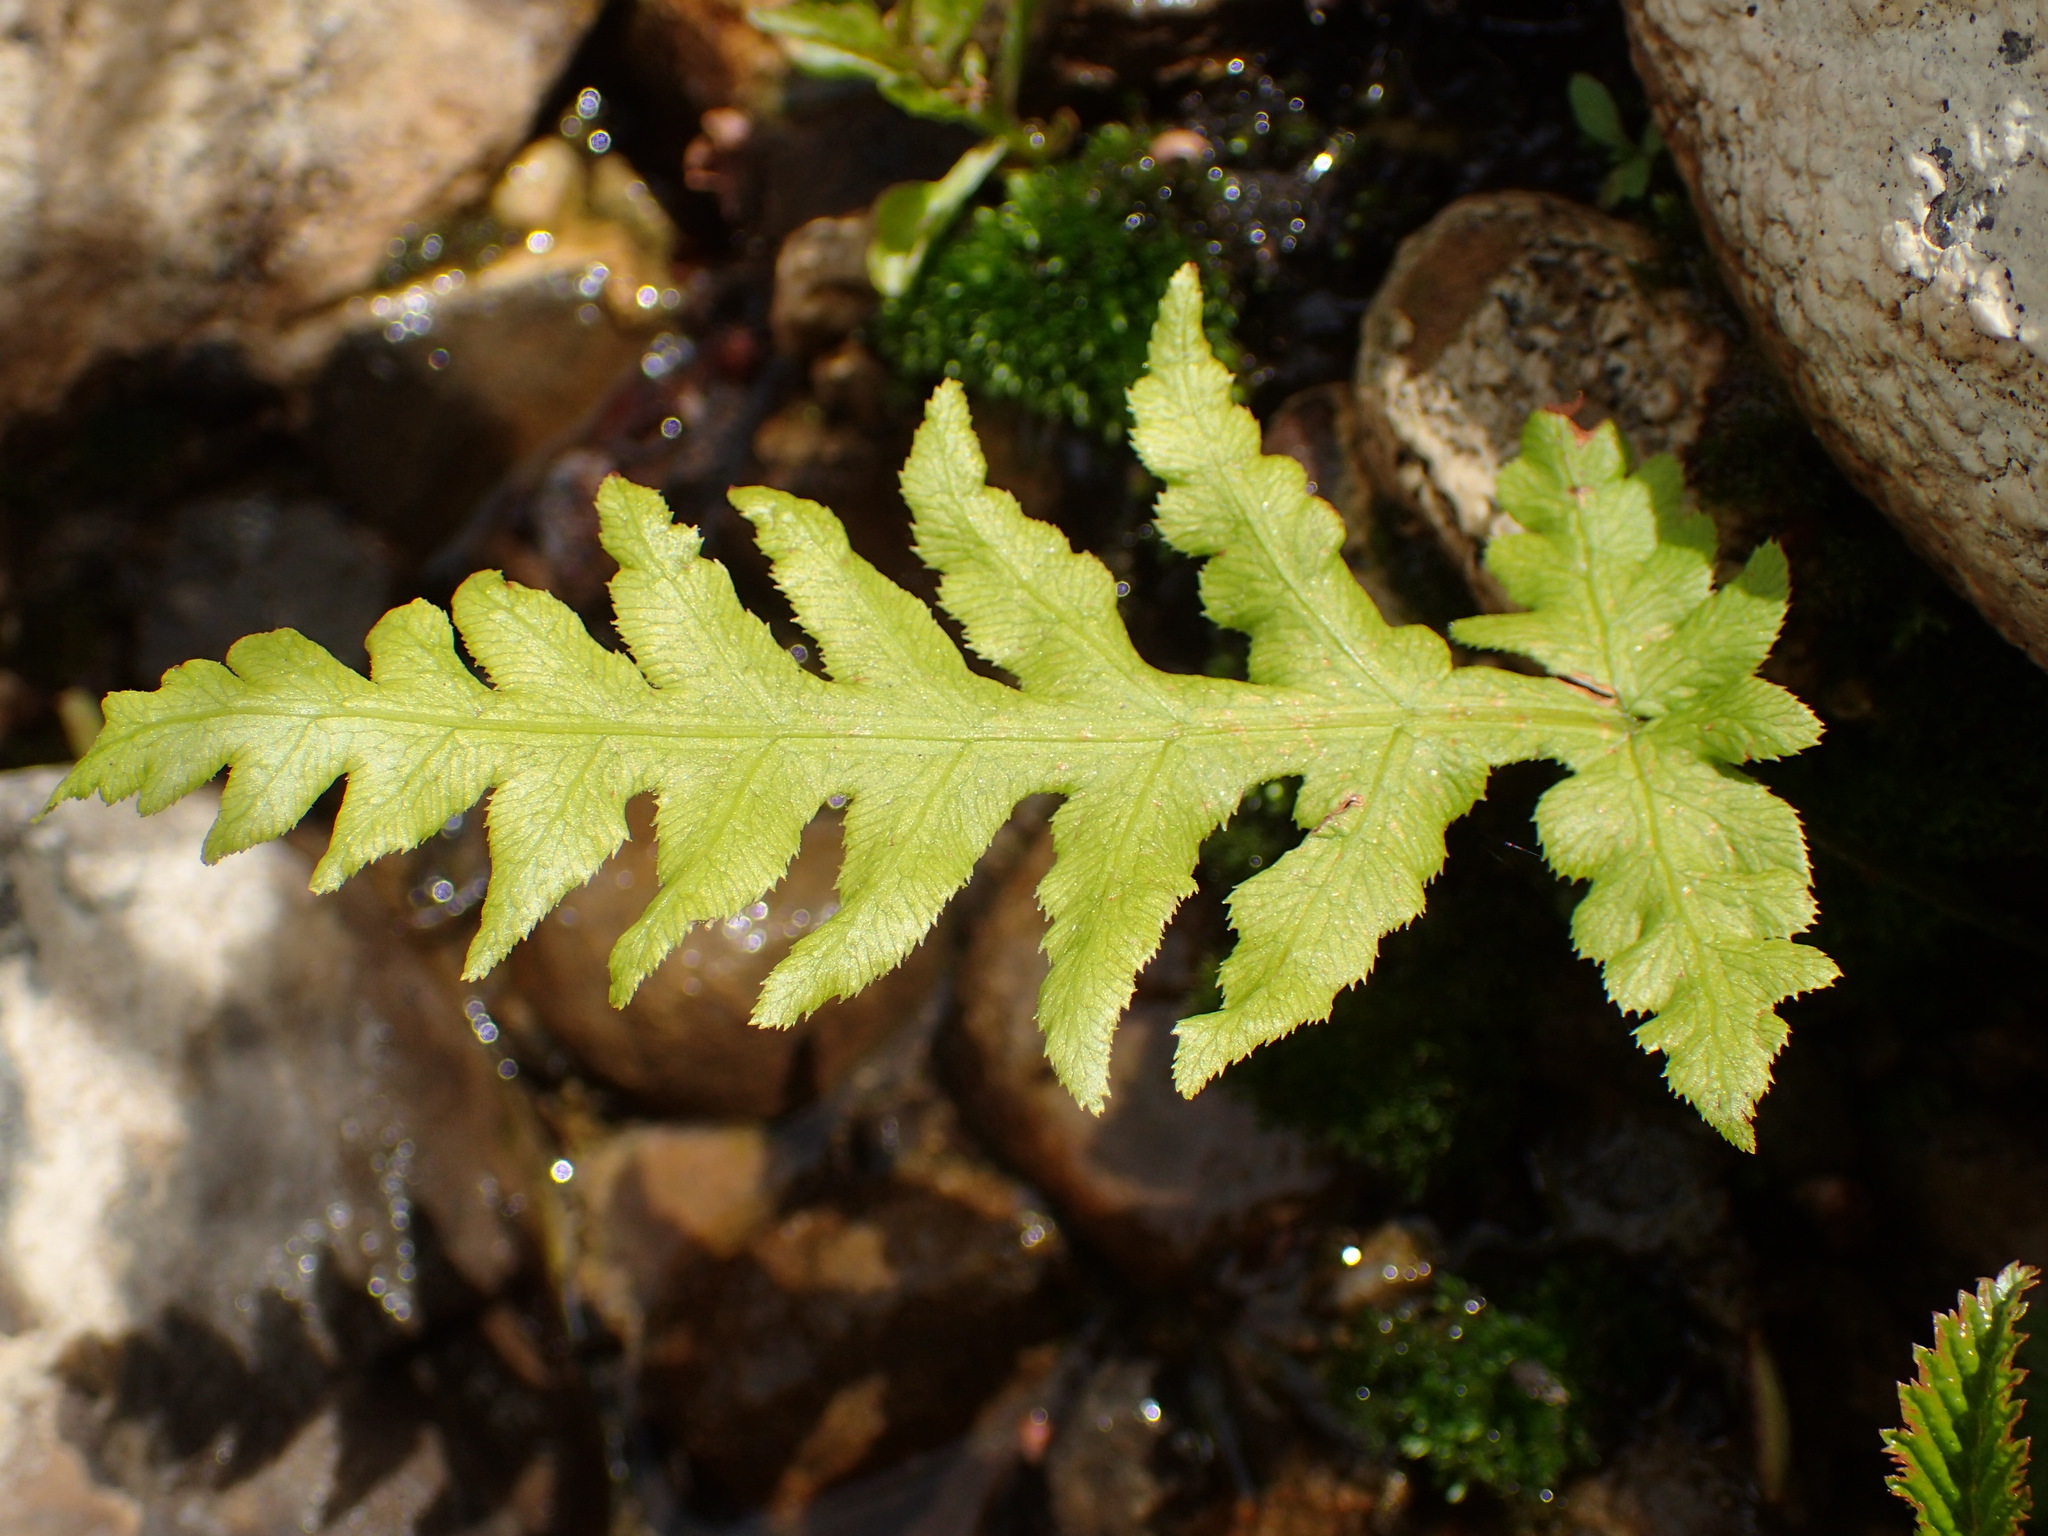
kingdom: Plantae
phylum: Tracheophyta
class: Polypodiopsida
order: Polypodiales
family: Blechnaceae
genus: Woodwardia
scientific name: Woodwardia fimbriata
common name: Giant chain fern
